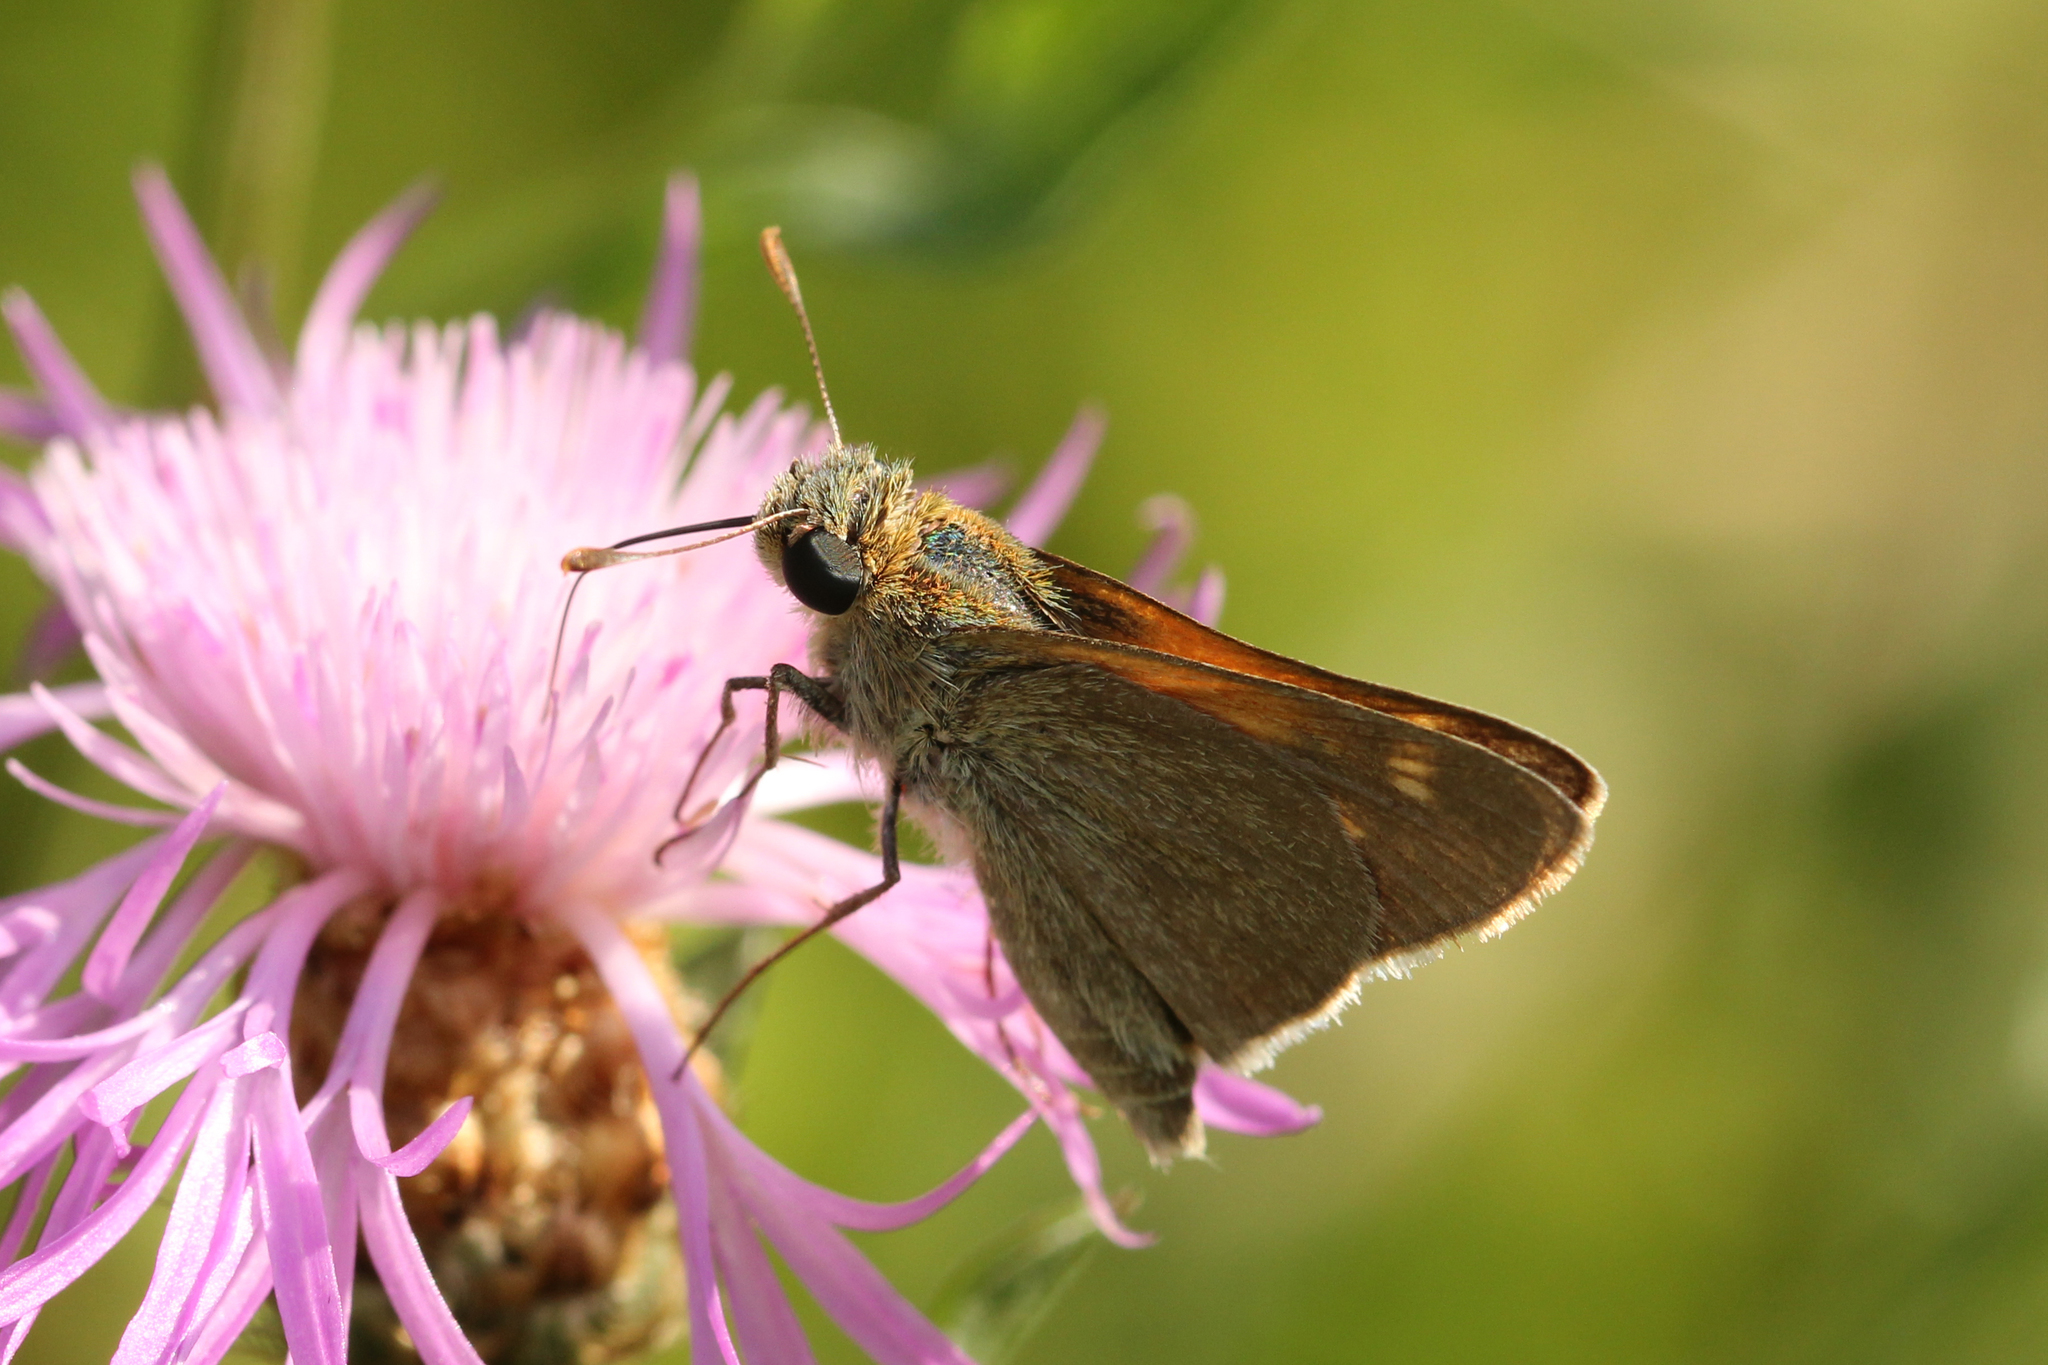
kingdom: Animalia
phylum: Arthropoda
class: Insecta
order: Lepidoptera
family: Hesperiidae
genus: Polites
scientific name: Polites themistocles
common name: Tawny-edged skipper
